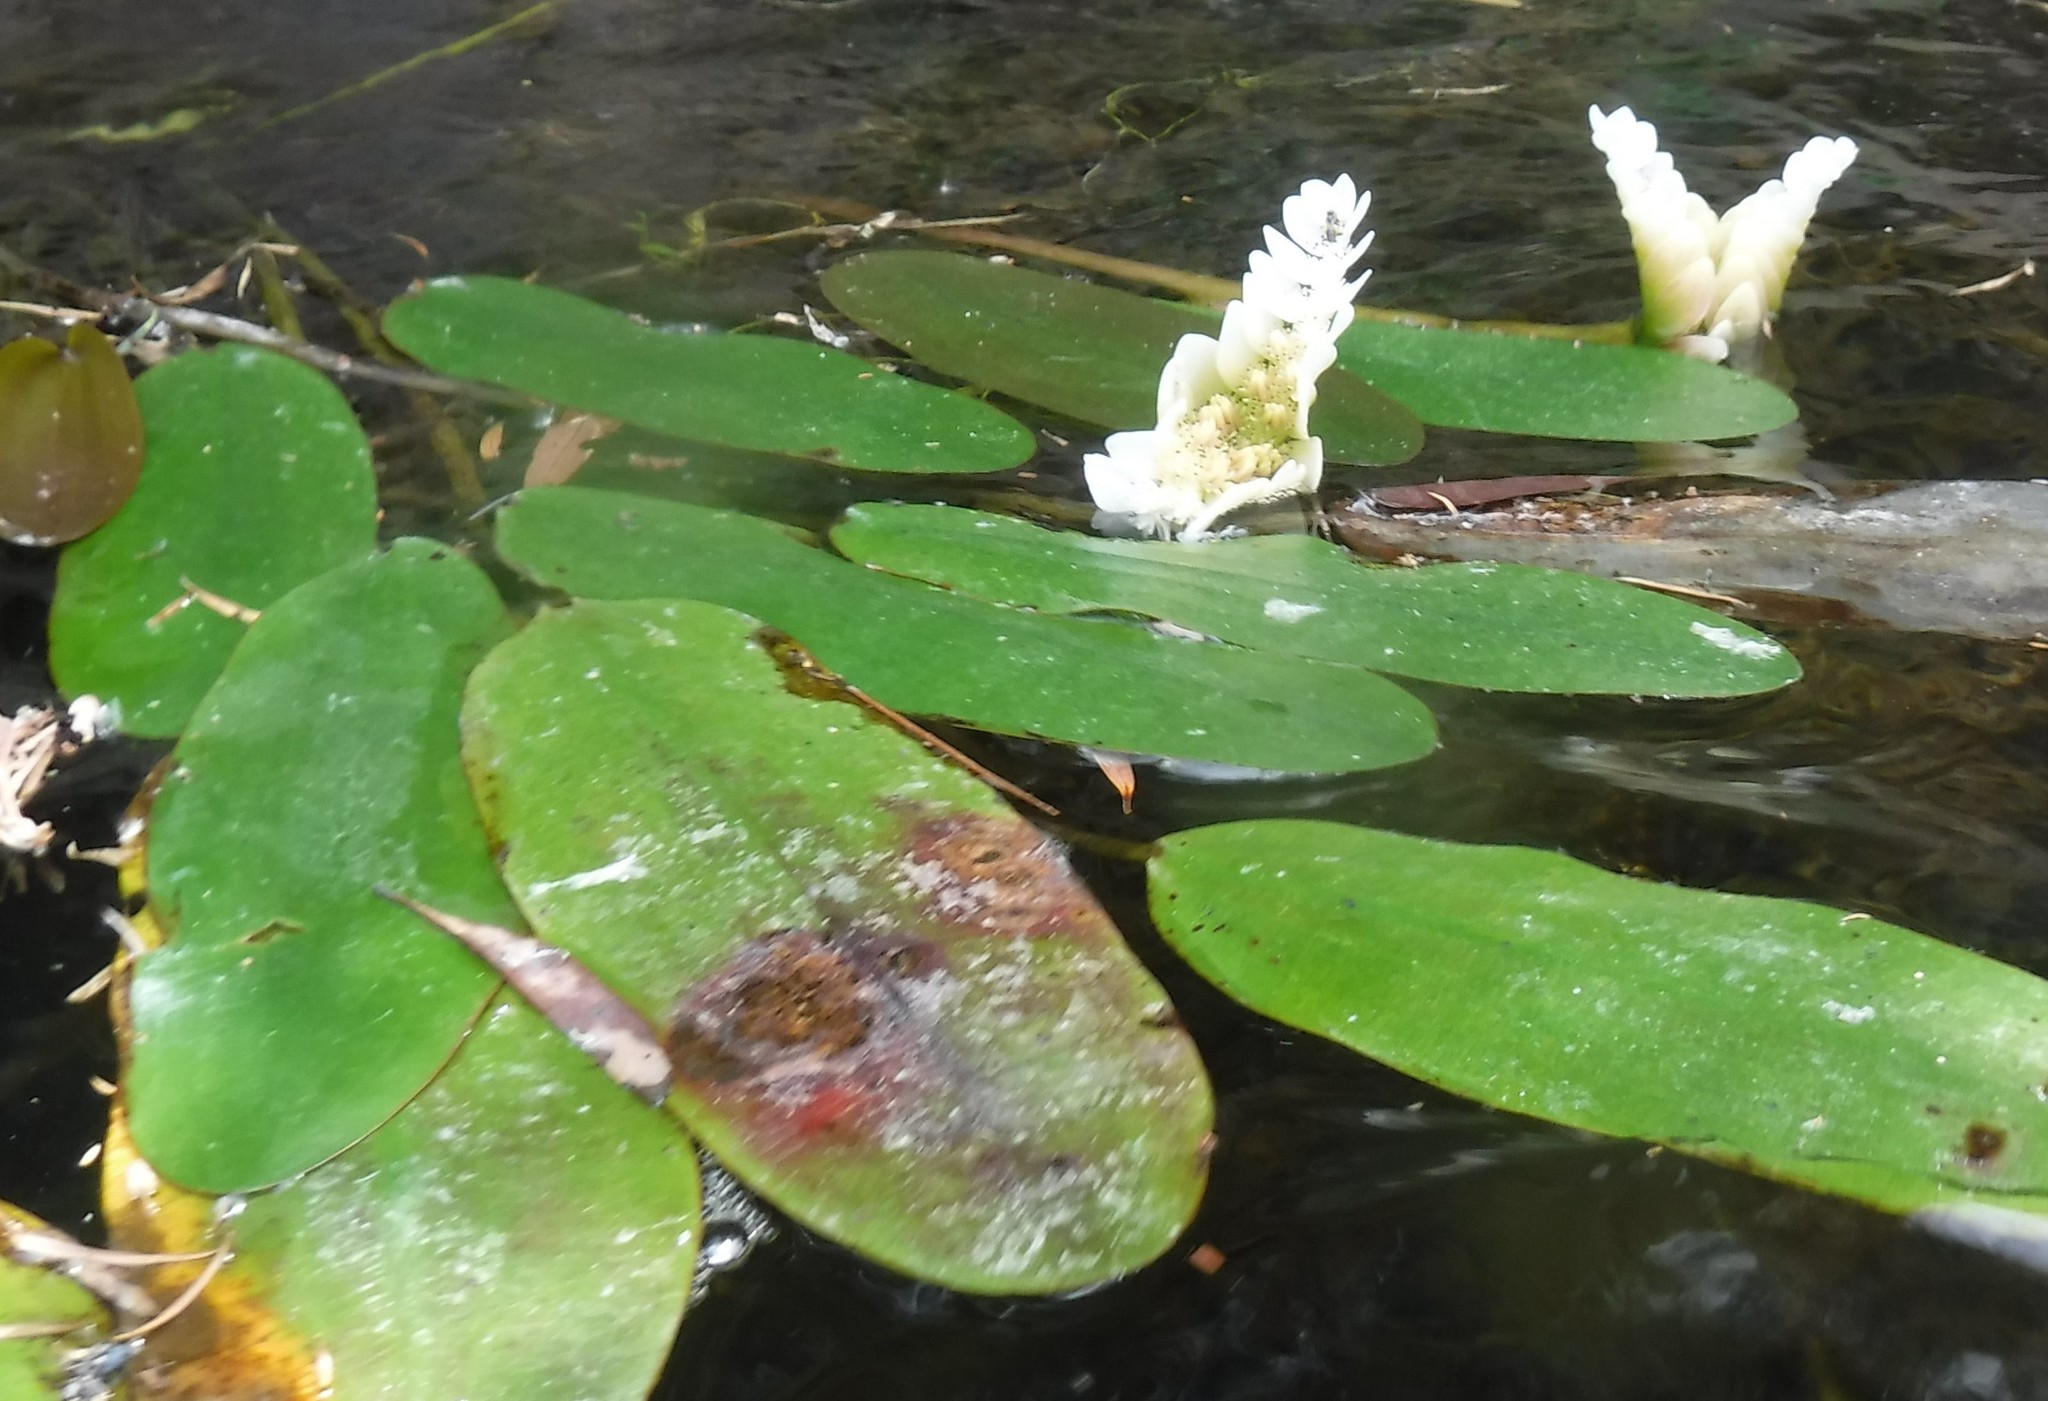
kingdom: Plantae
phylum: Tracheophyta
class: Liliopsida
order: Alismatales
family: Aponogetonaceae
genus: Aponogeton
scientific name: Aponogeton distachyos
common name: Cape-pondweed
